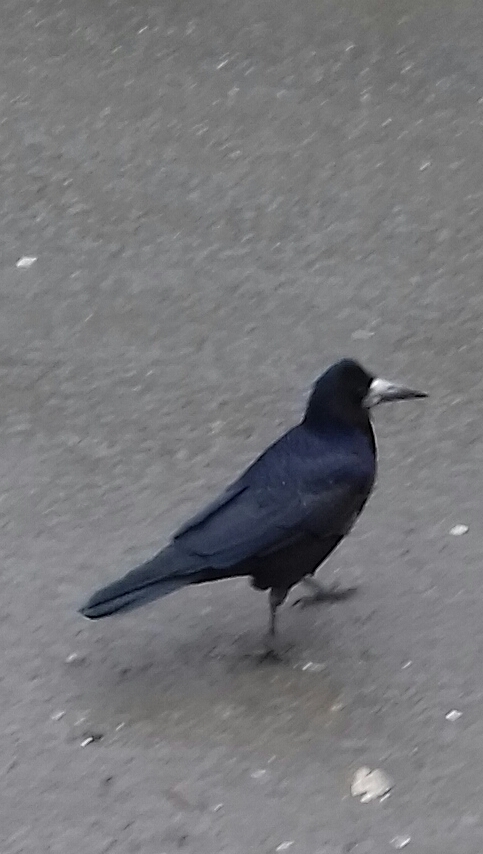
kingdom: Animalia
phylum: Chordata
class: Aves
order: Passeriformes
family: Corvidae
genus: Corvus
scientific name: Corvus frugilegus
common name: Rook
